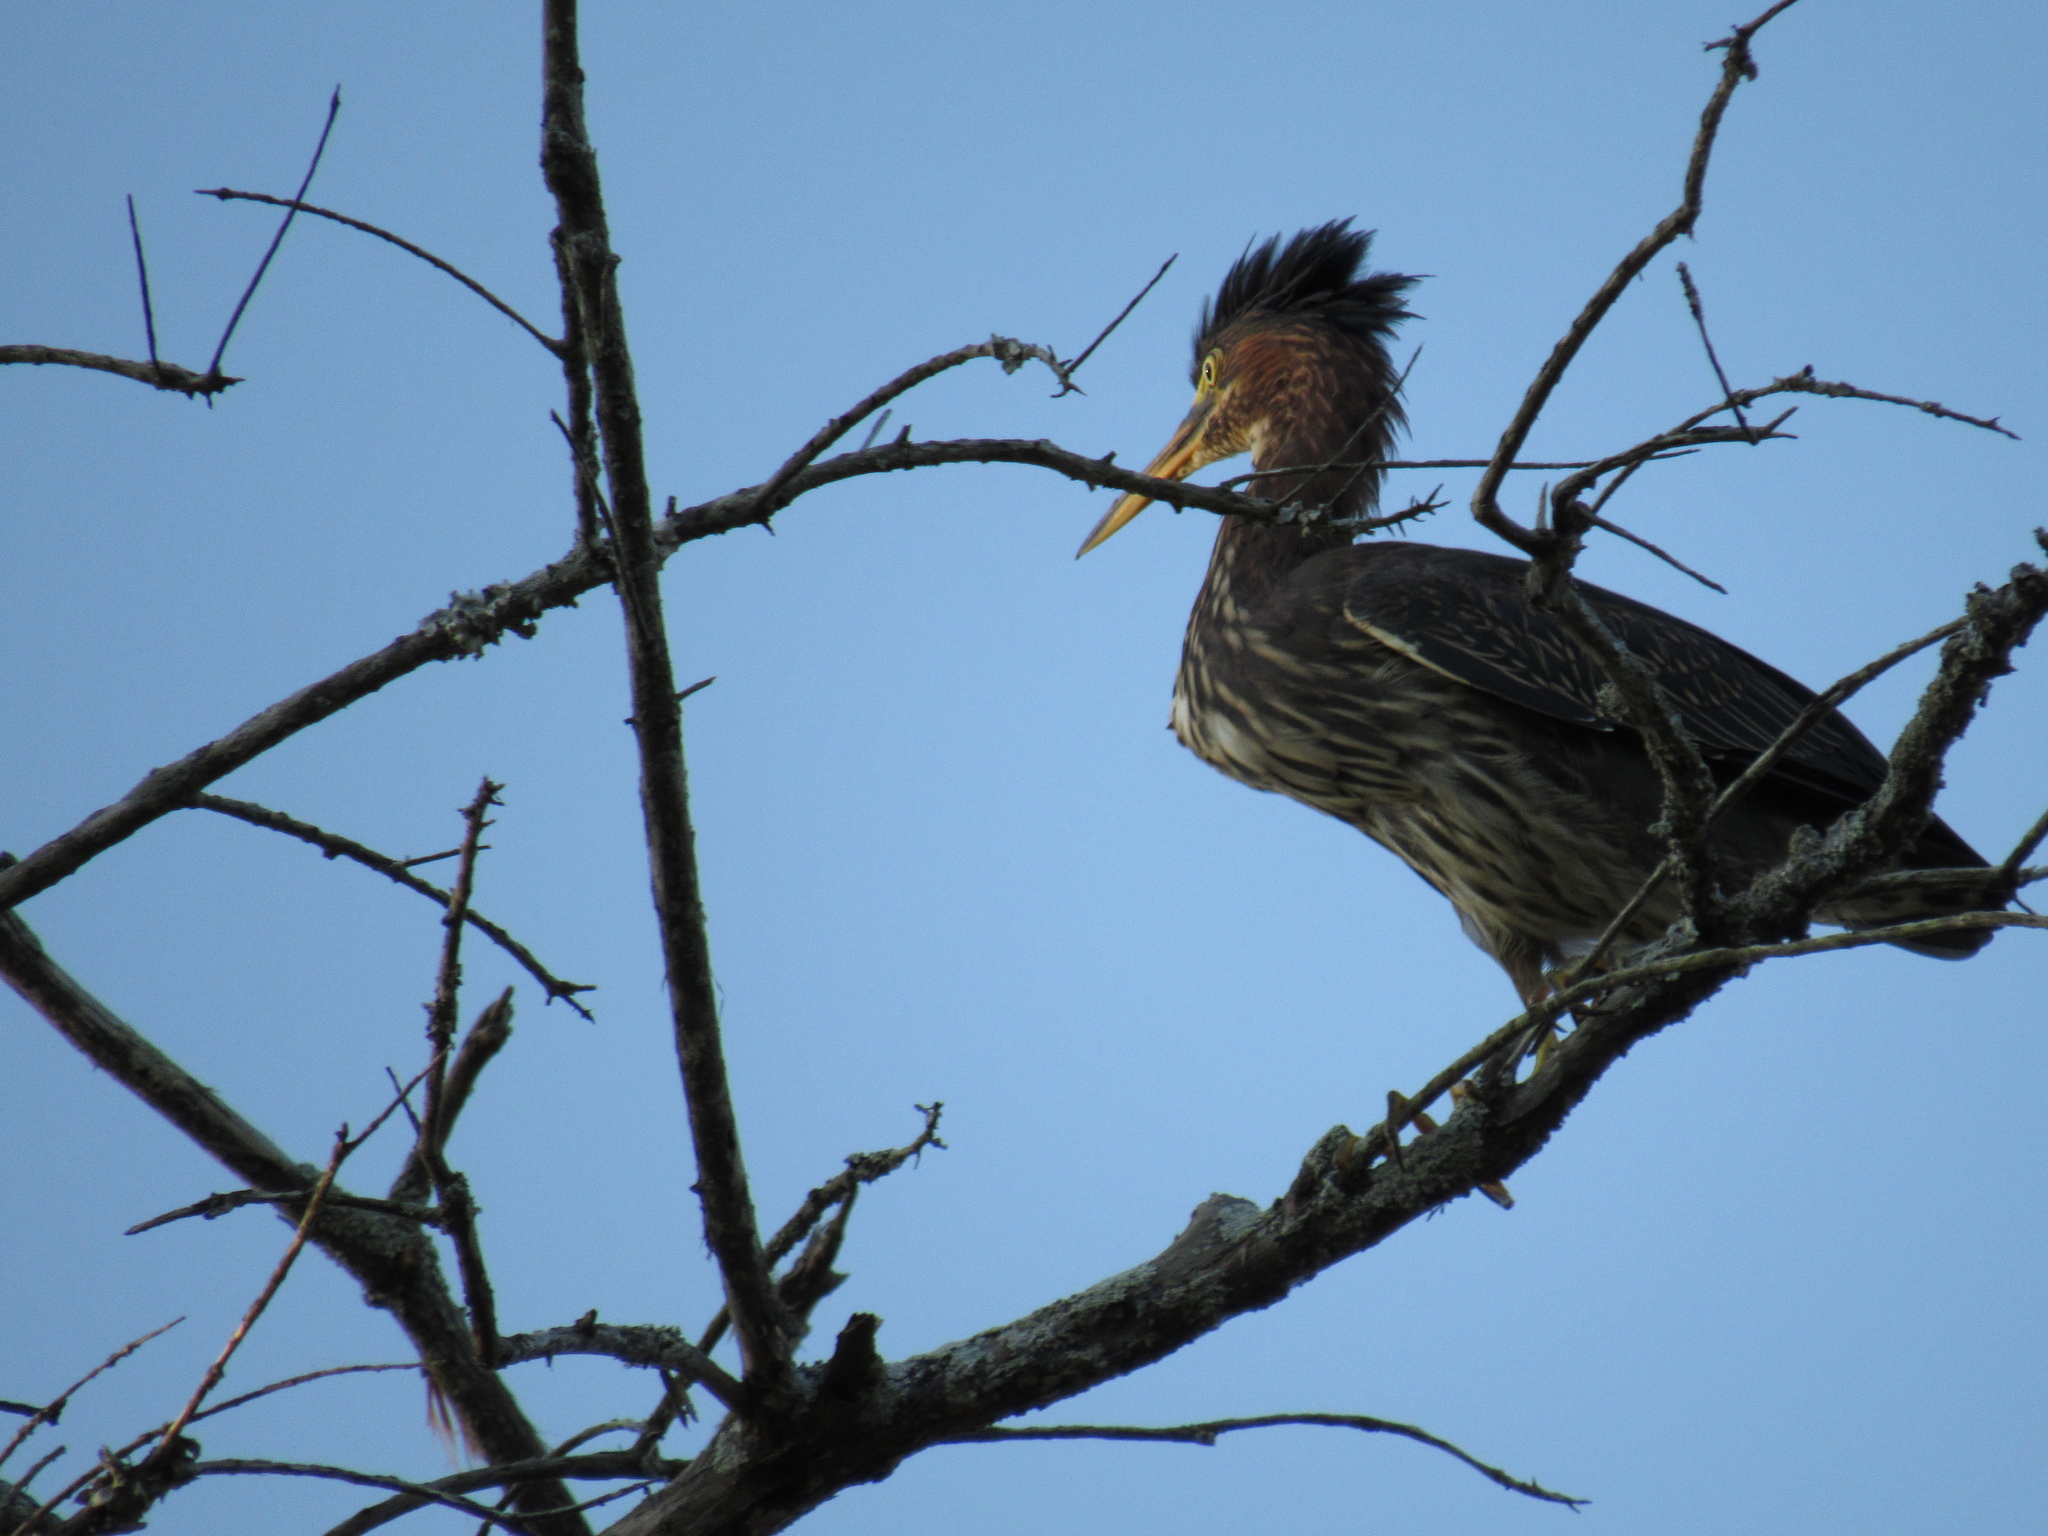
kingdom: Animalia
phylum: Chordata
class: Aves
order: Pelecaniformes
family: Ardeidae
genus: Butorides
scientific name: Butorides virescens
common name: Green heron
